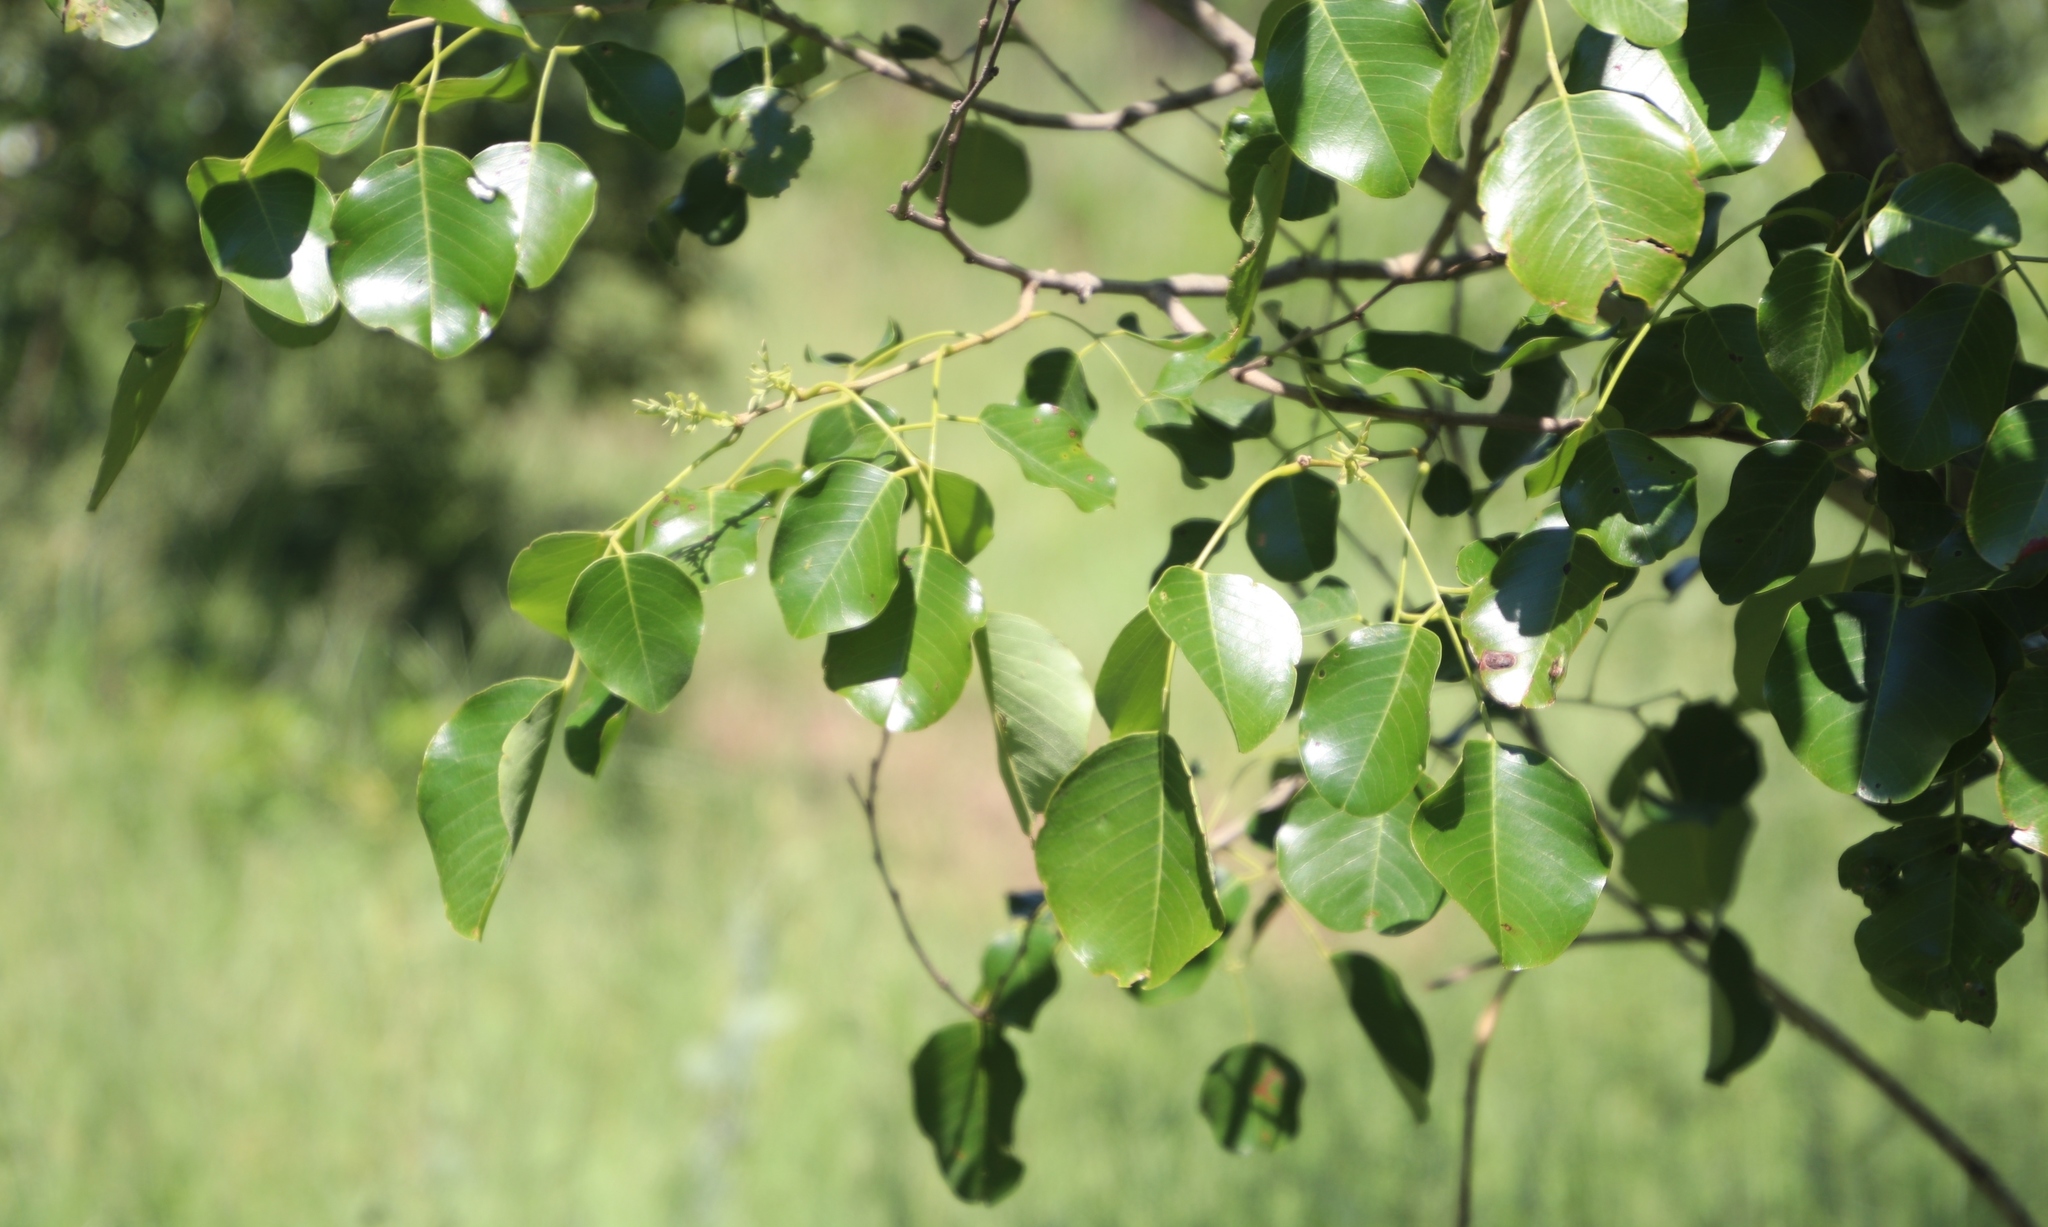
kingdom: Plantae
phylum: Tracheophyta
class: Magnoliopsida
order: Fabales
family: Fabaceae
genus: Pterocarpus
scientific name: Pterocarpus rotundifolius
